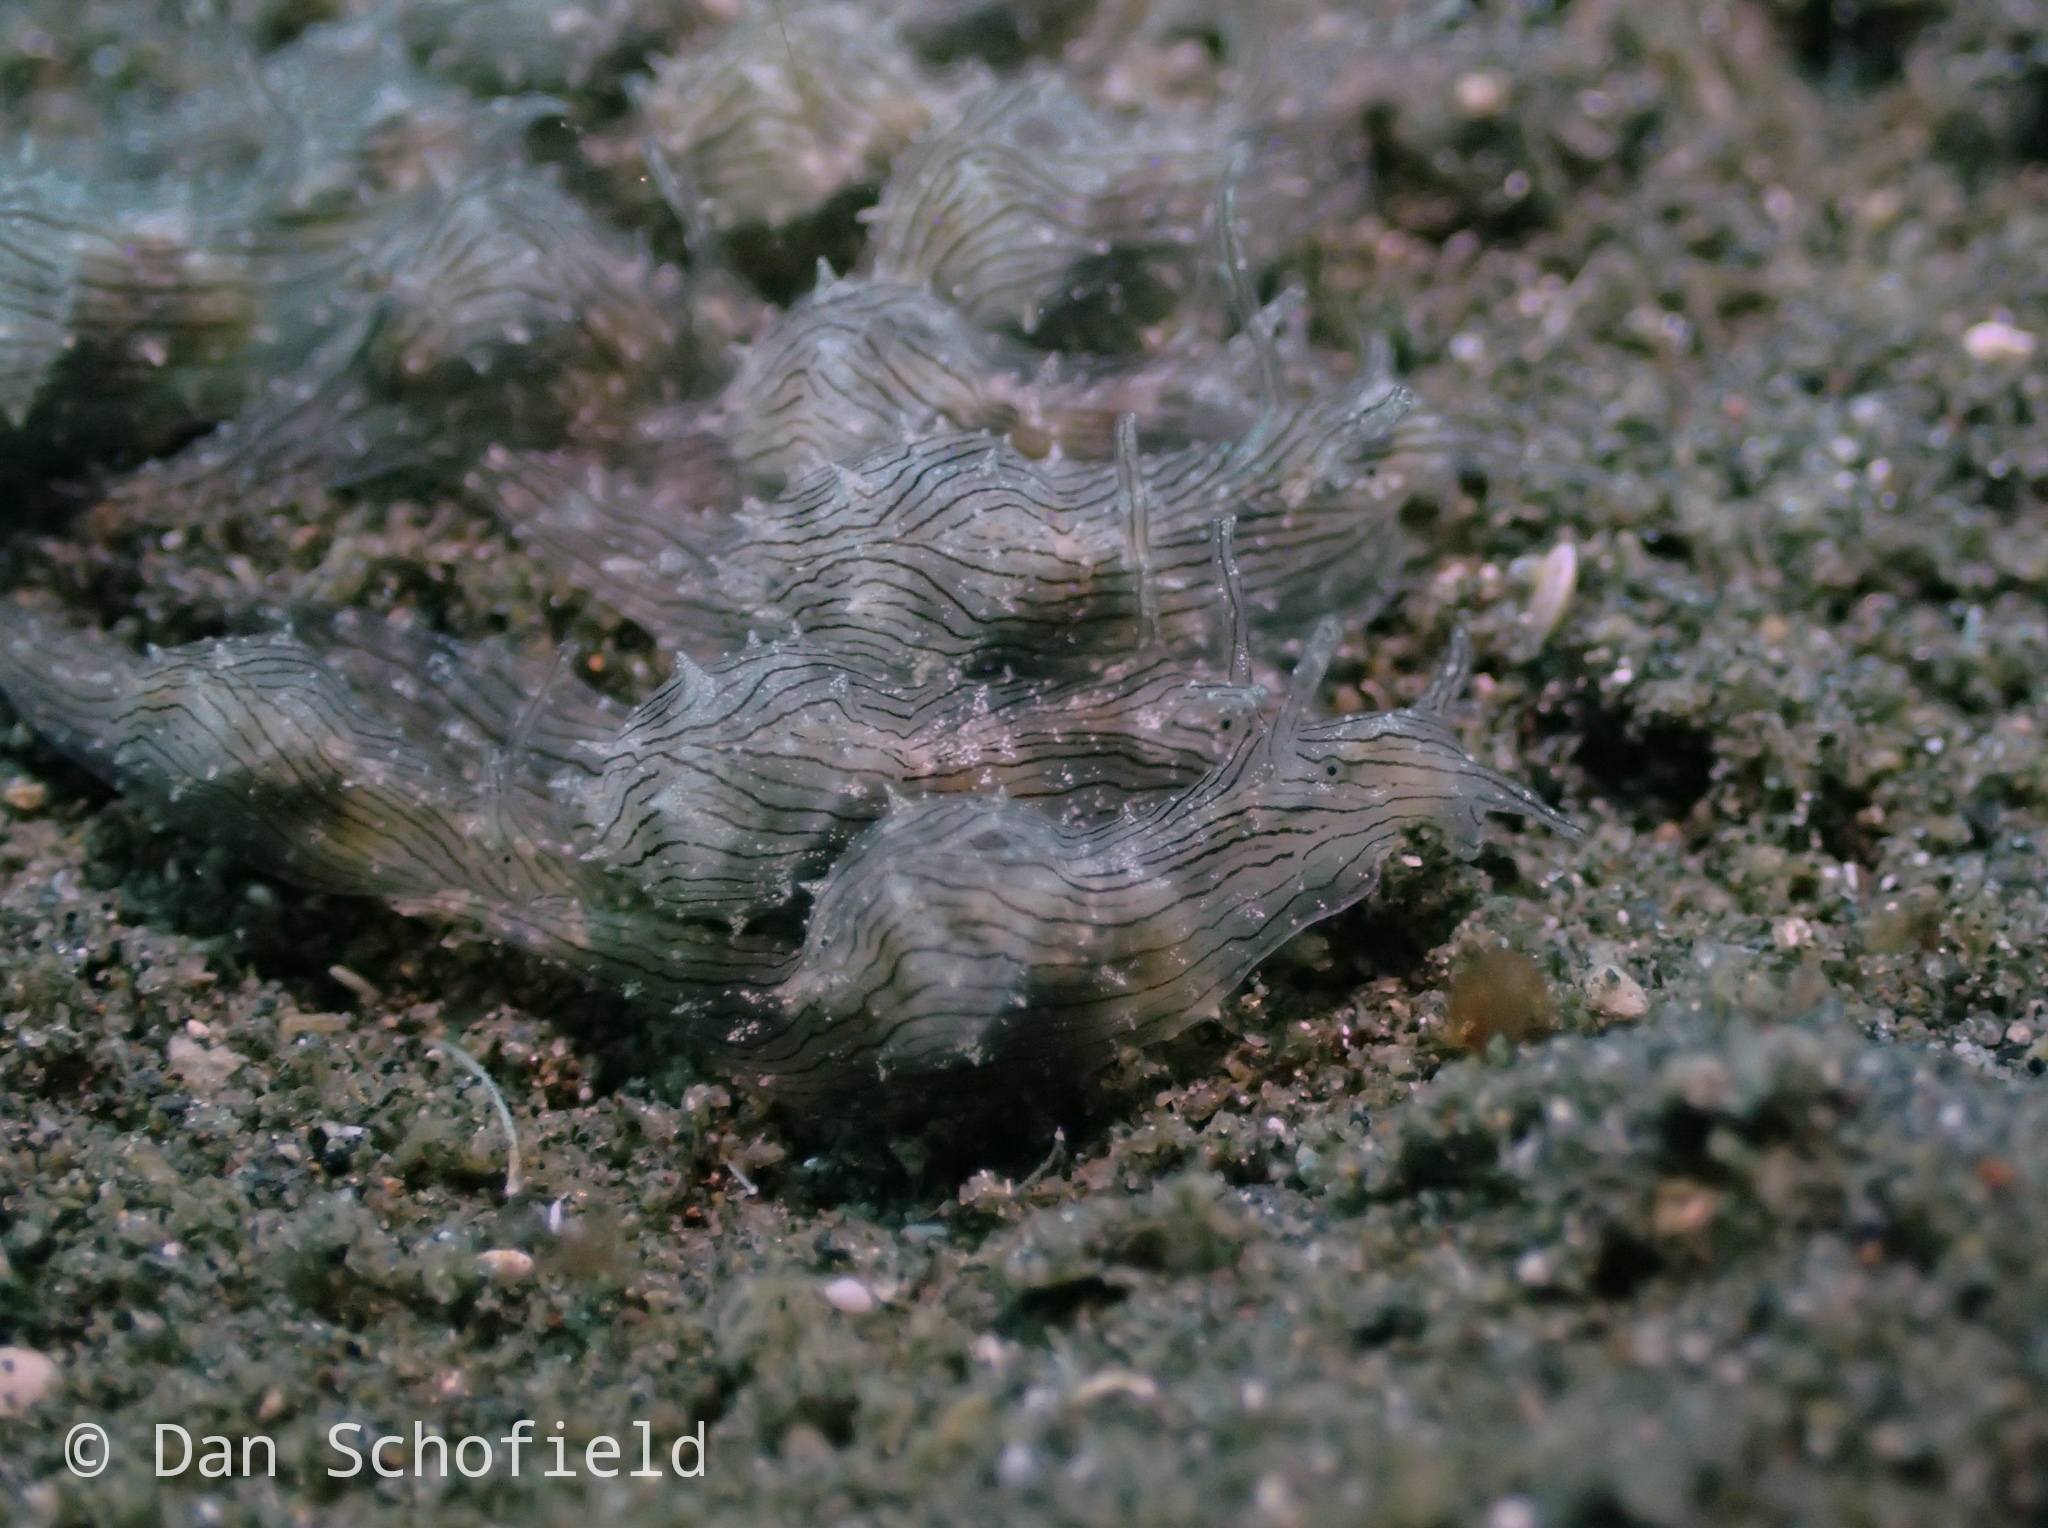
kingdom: Animalia
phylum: Mollusca
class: Gastropoda
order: Aplysiida
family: Aplysiidae
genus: Stylocheilus
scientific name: Stylocheilus striatus
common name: Striated seahare
